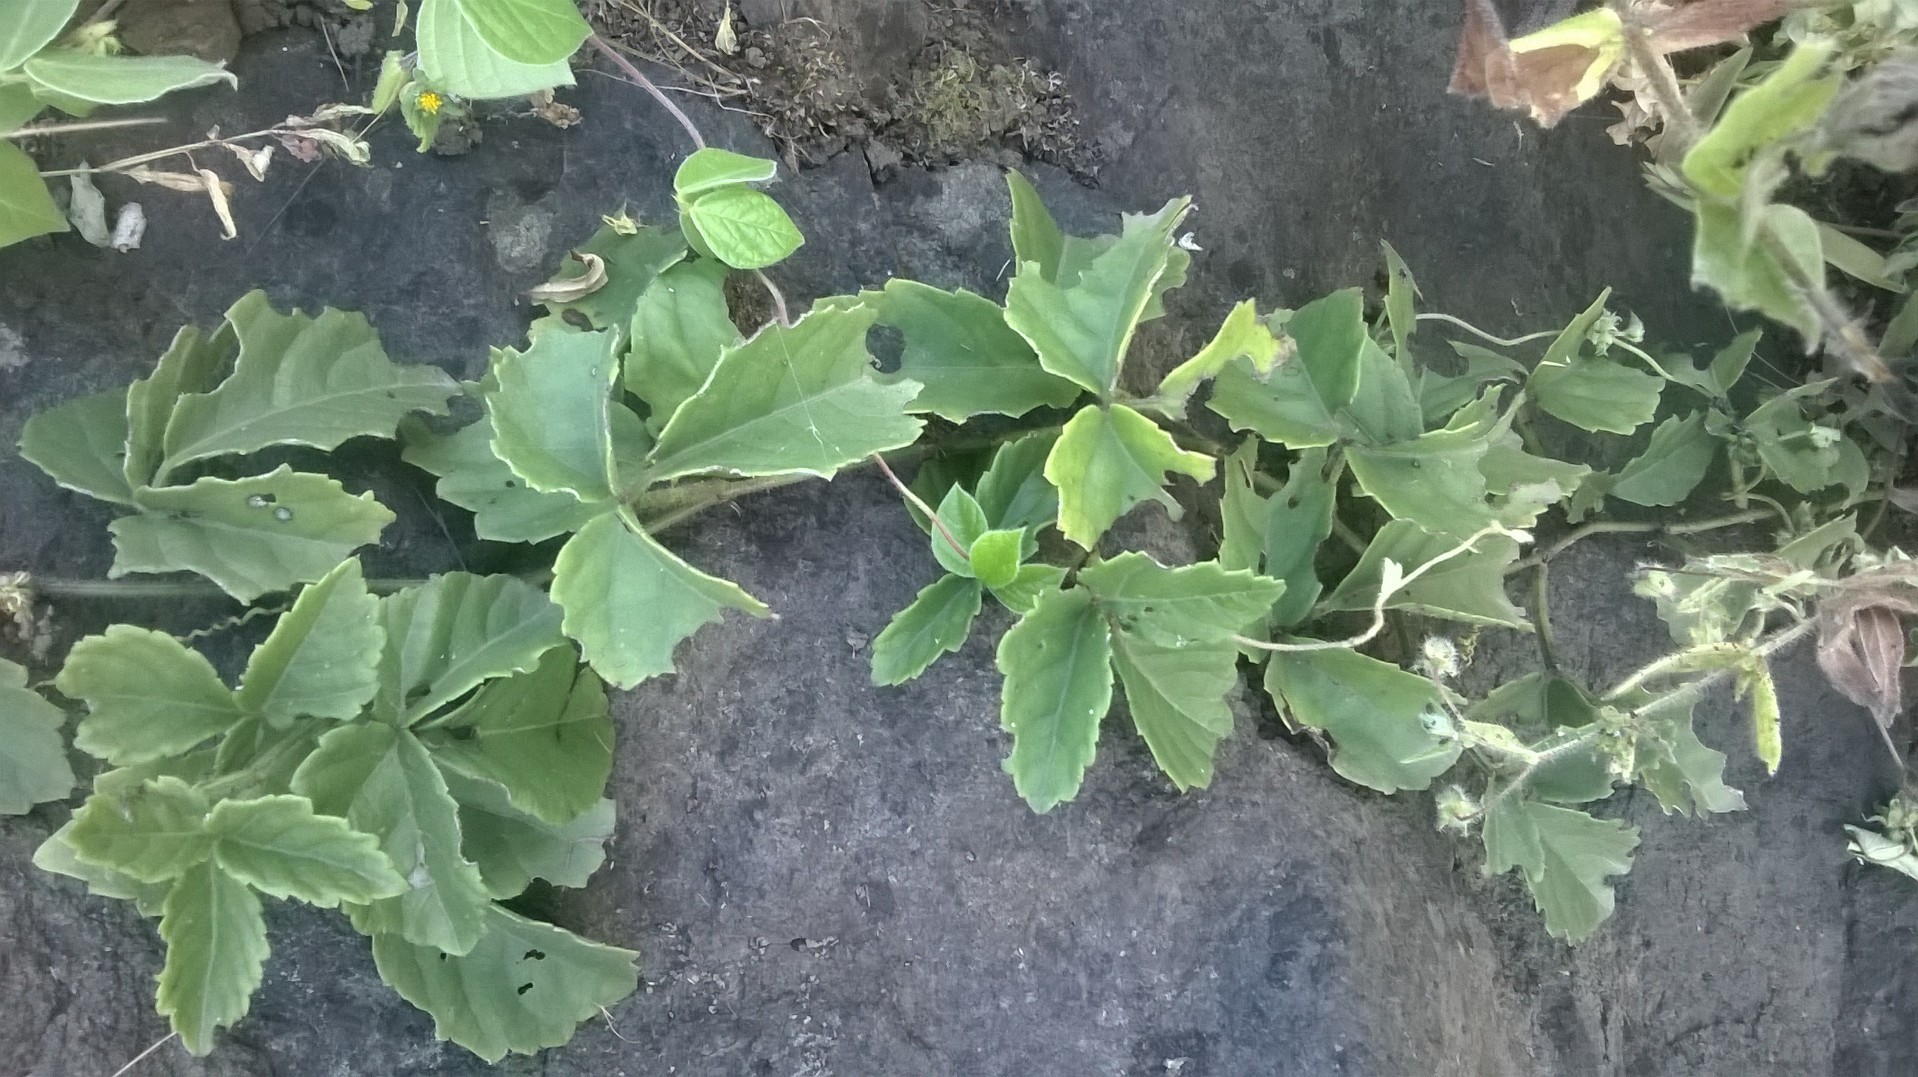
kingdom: Plantae
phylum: Tracheophyta
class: Magnoliopsida
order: Vitales
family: Vitaceae
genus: Causonis
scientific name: Causonis trifolia
